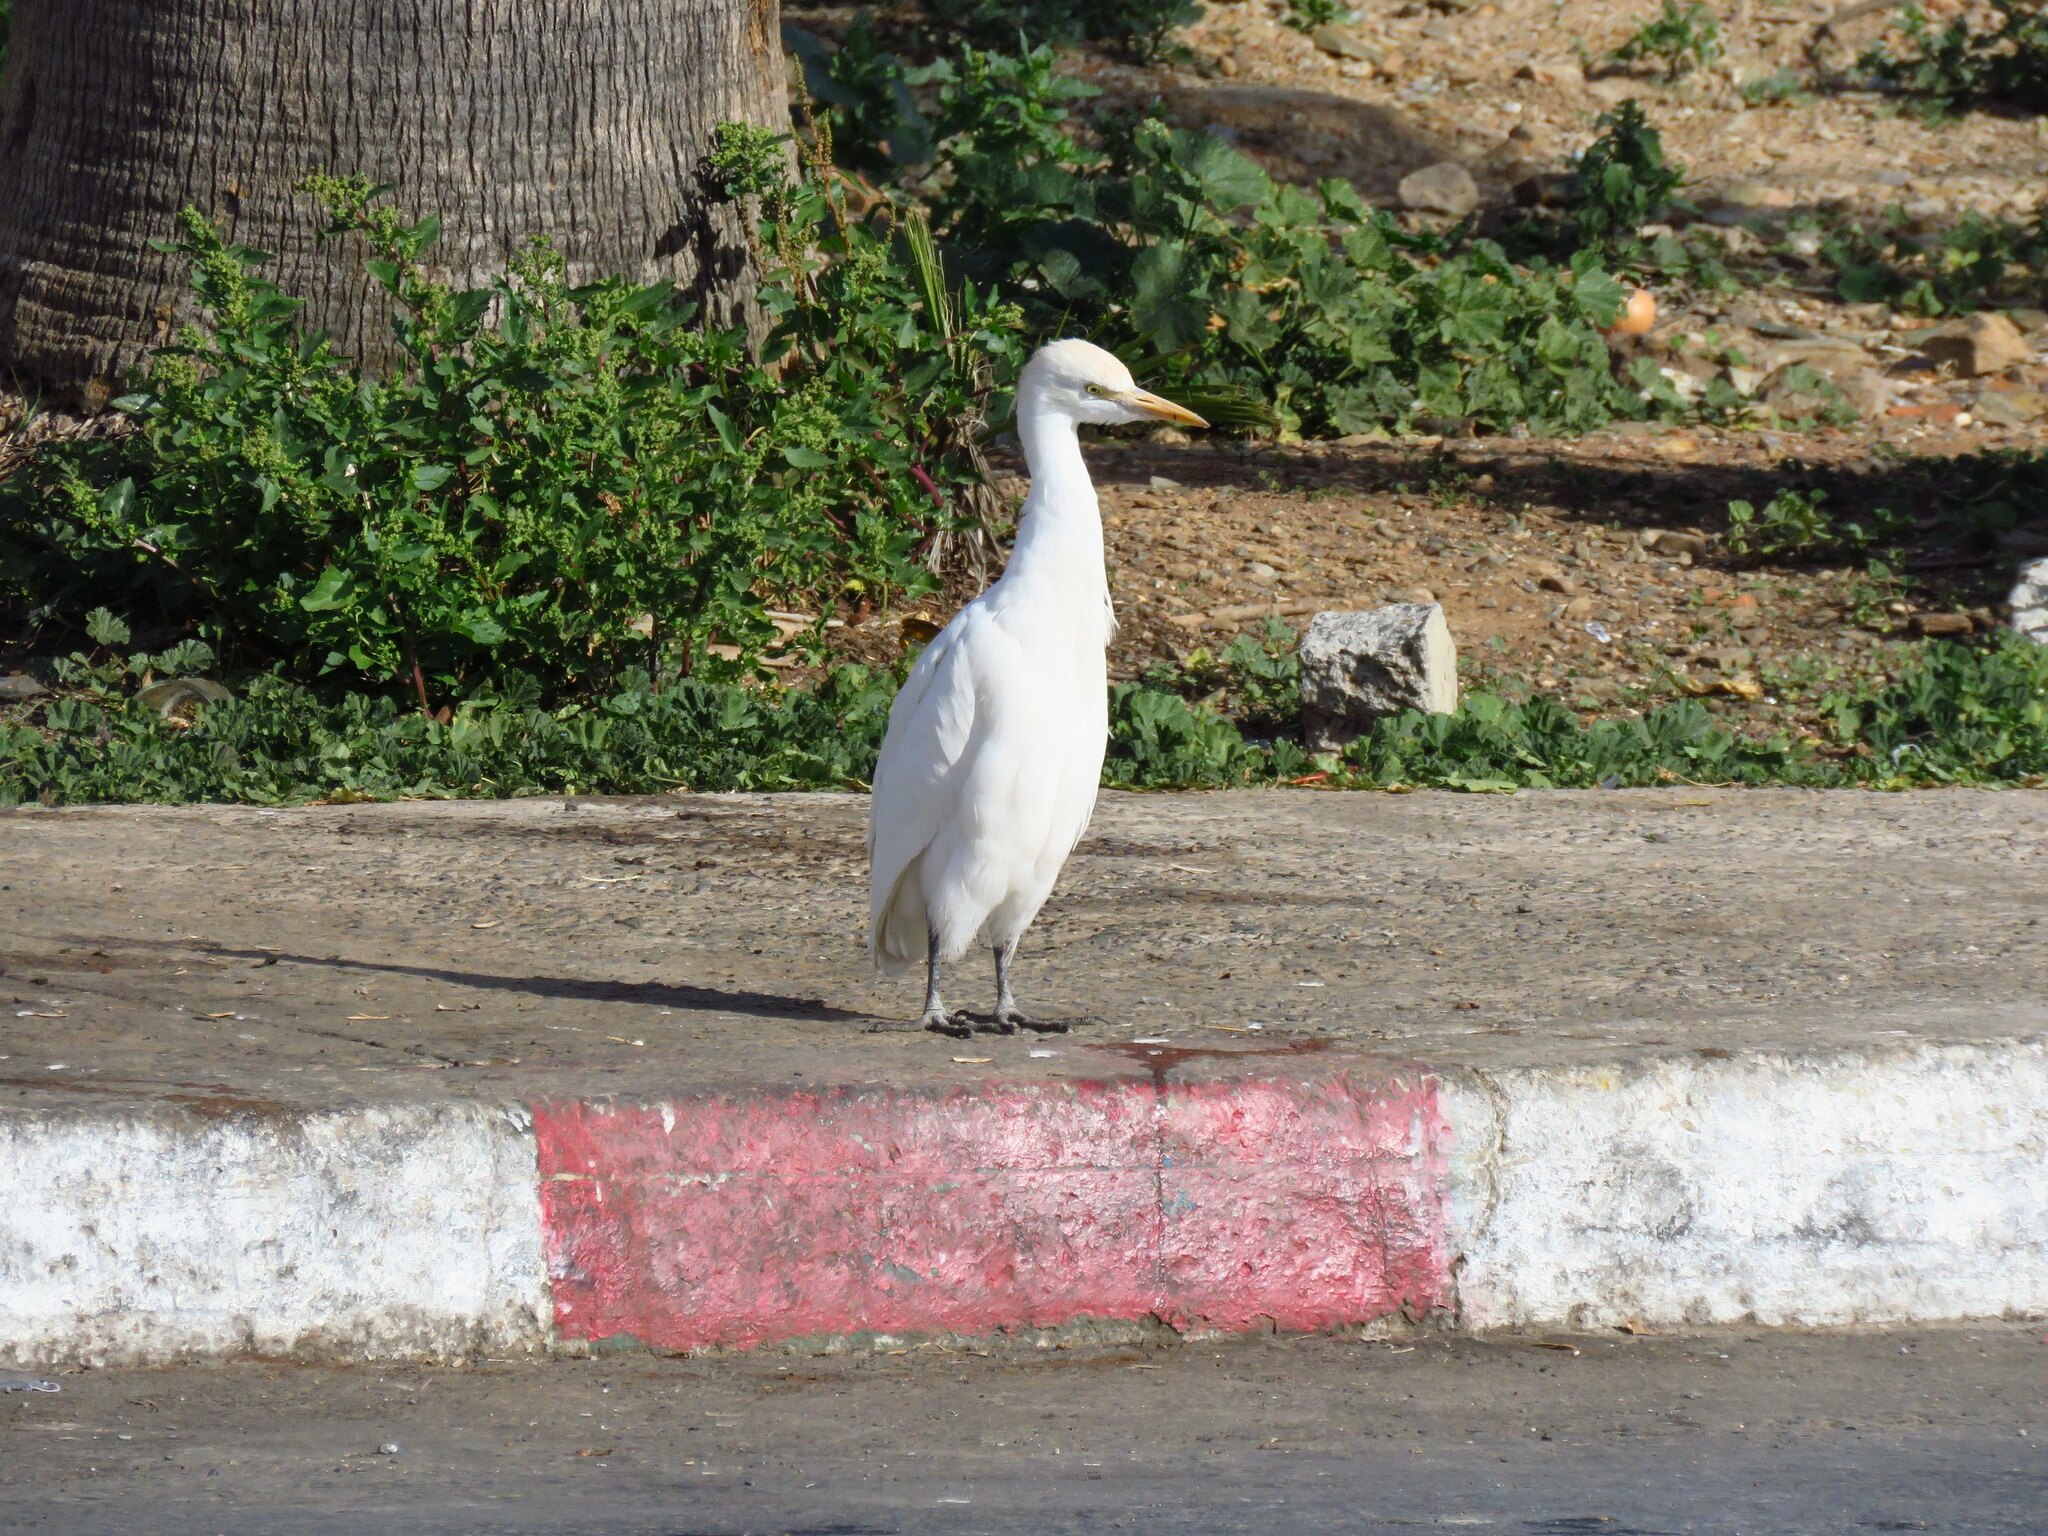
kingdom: Animalia
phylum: Chordata
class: Aves
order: Pelecaniformes
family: Ardeidae
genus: Bubulcus
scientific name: Bubulcus ibis
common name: Cattle egret
